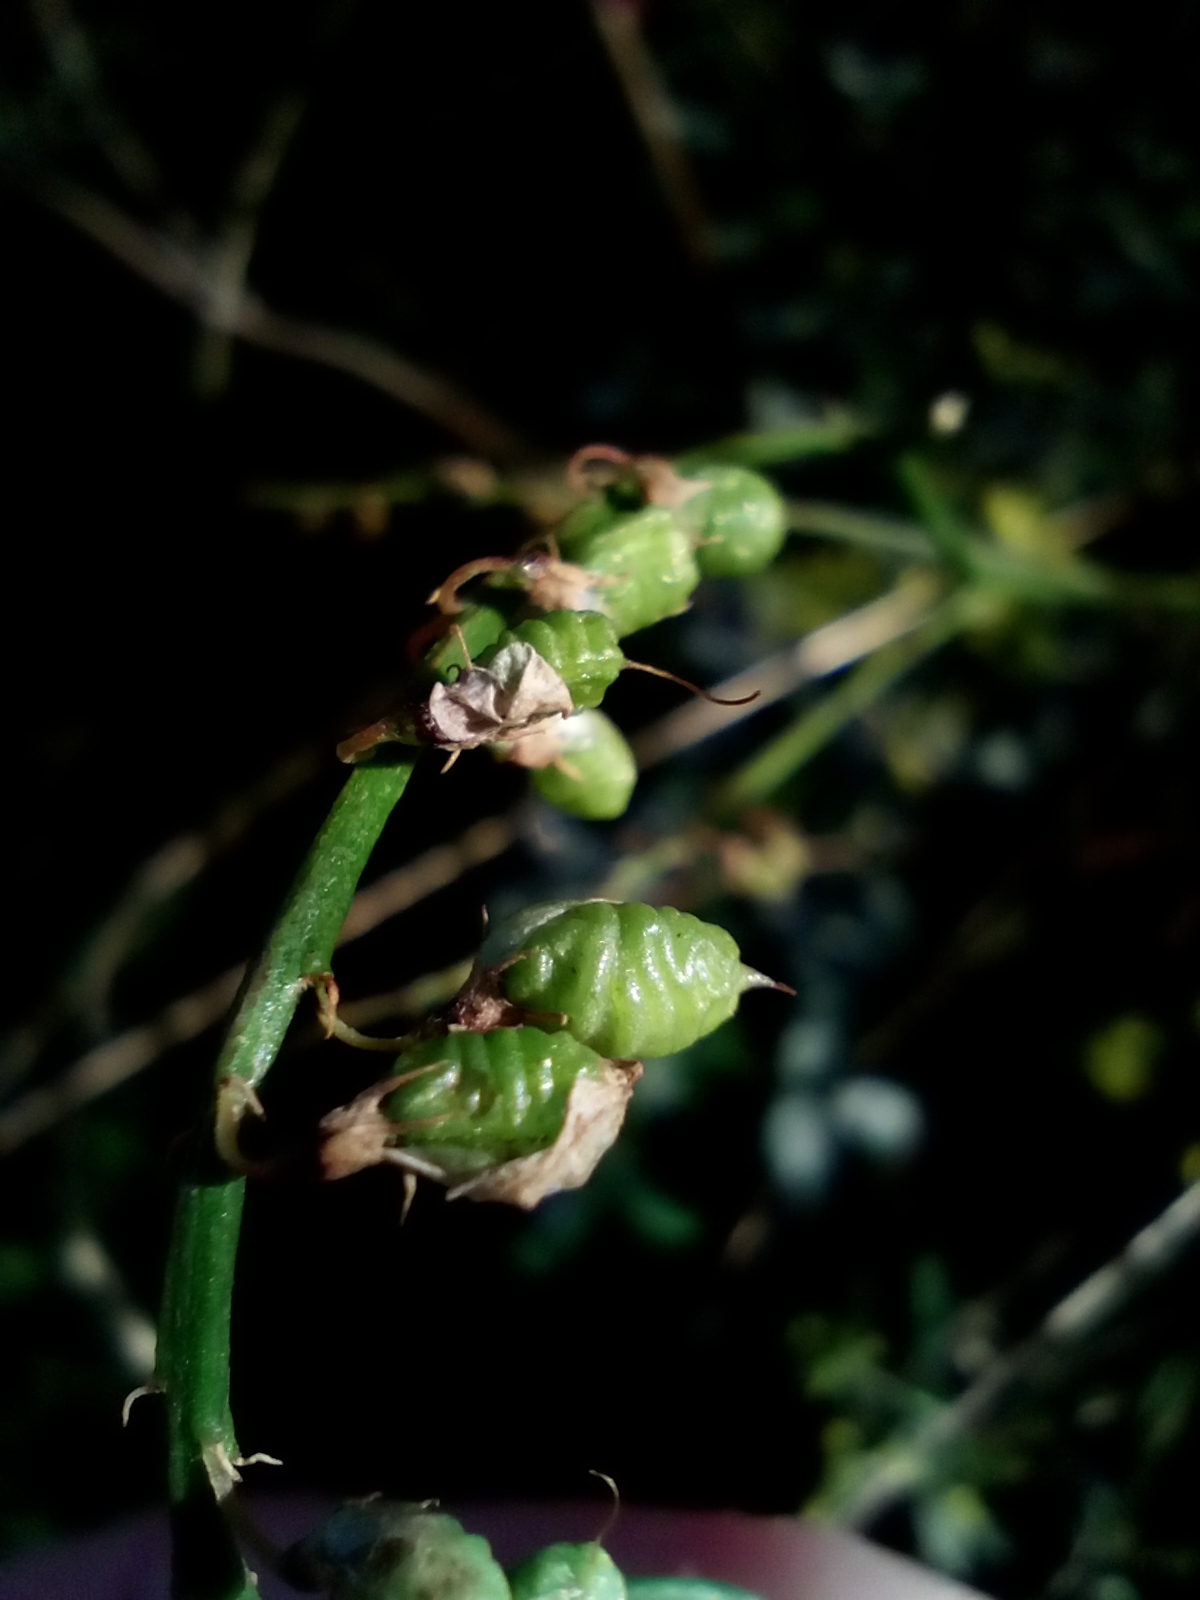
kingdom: Plantae
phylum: Tracheophyta
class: Magnoliopsida
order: Fabales
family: Fabaceae
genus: Melilotus
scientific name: Melilotus officinalis
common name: Sweetclover
